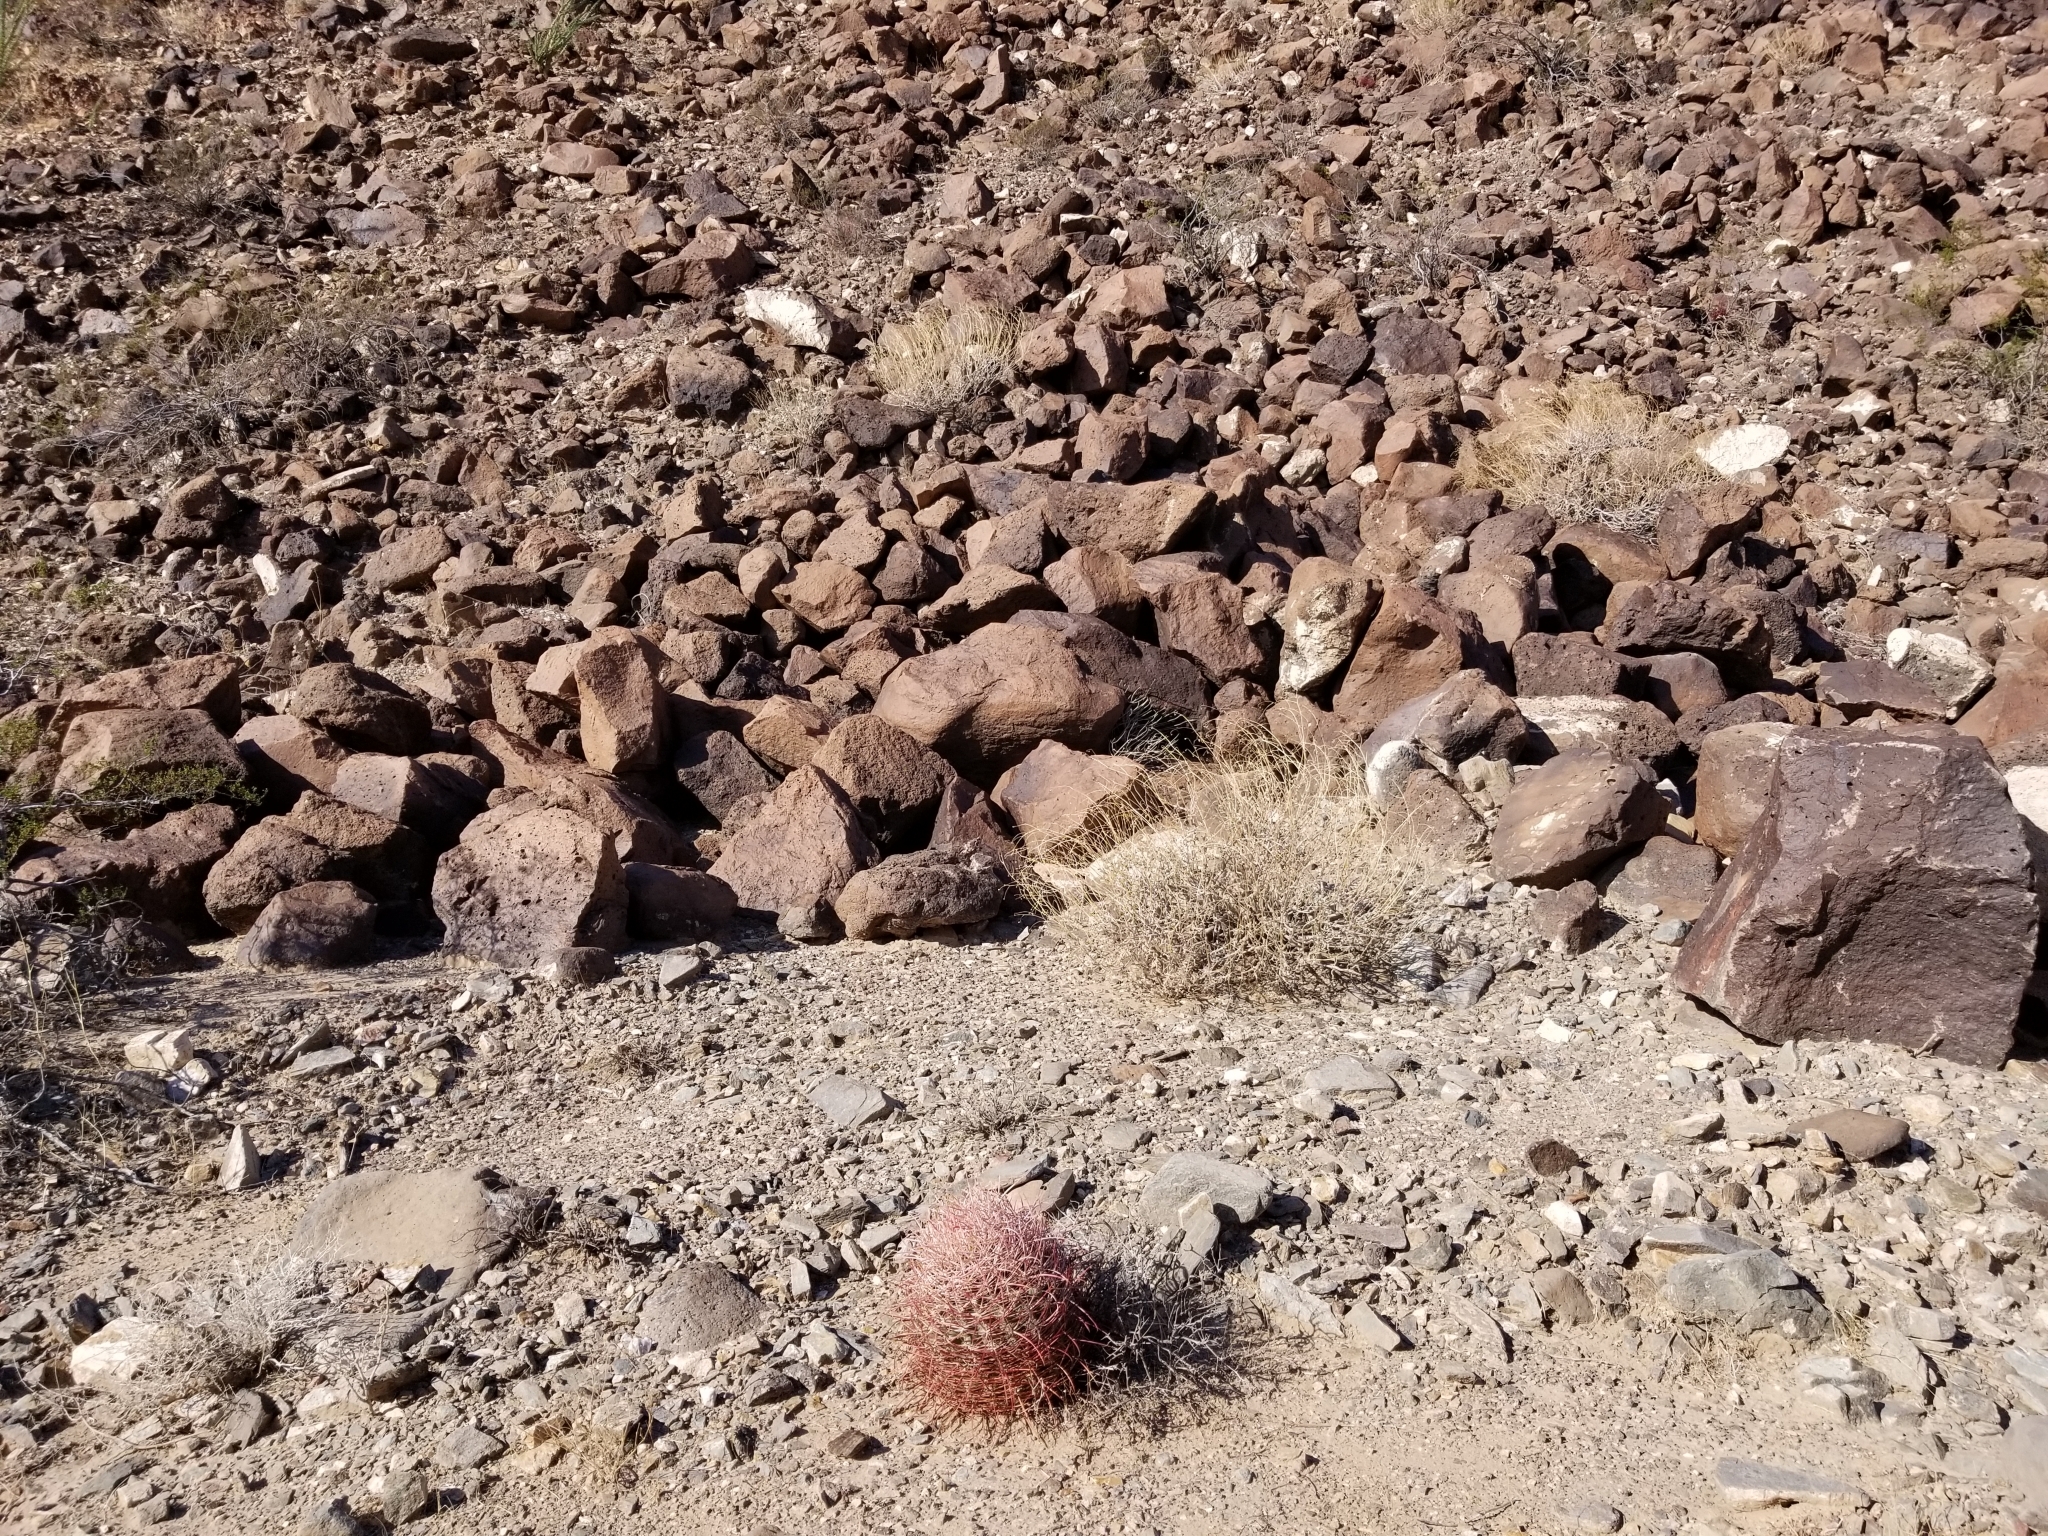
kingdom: Plantae
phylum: Tracheophyta
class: Magnoliopsida
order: Caryophyllales
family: Cactaceae
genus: Ferocactus
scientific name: Ferocactus cylindraceus
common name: California barrel cactus
